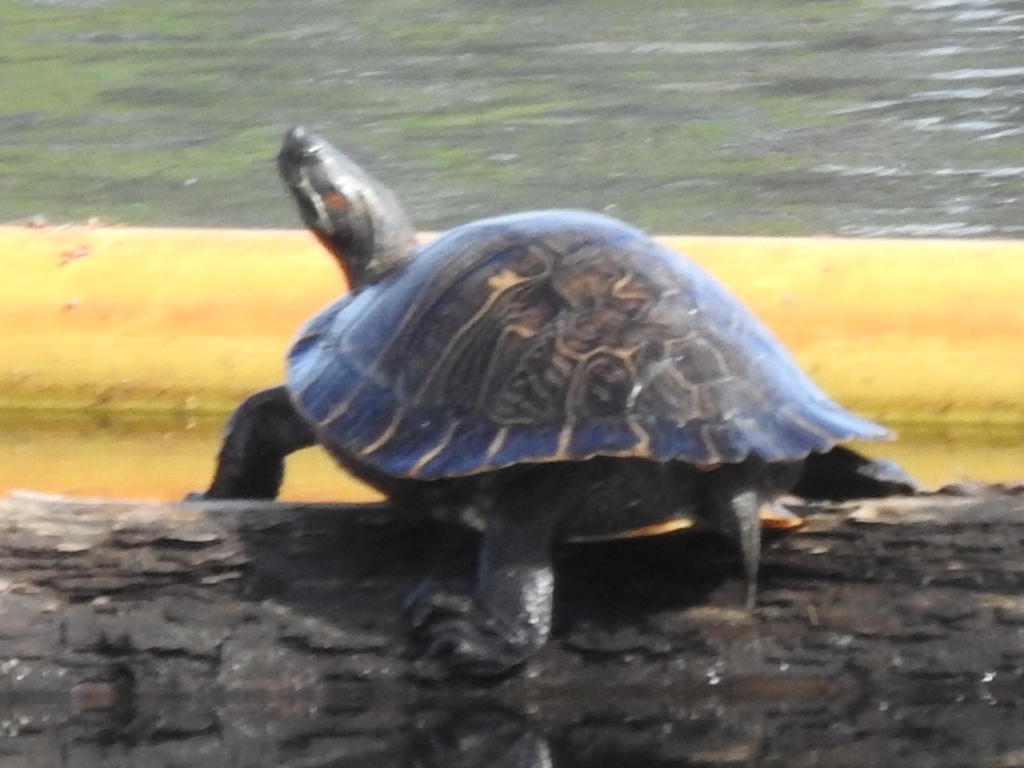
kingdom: Animalia
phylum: Chordata
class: Testudines
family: Emydidae
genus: Pseudemys
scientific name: Pseudemys concinna
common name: Eastern river cooter
